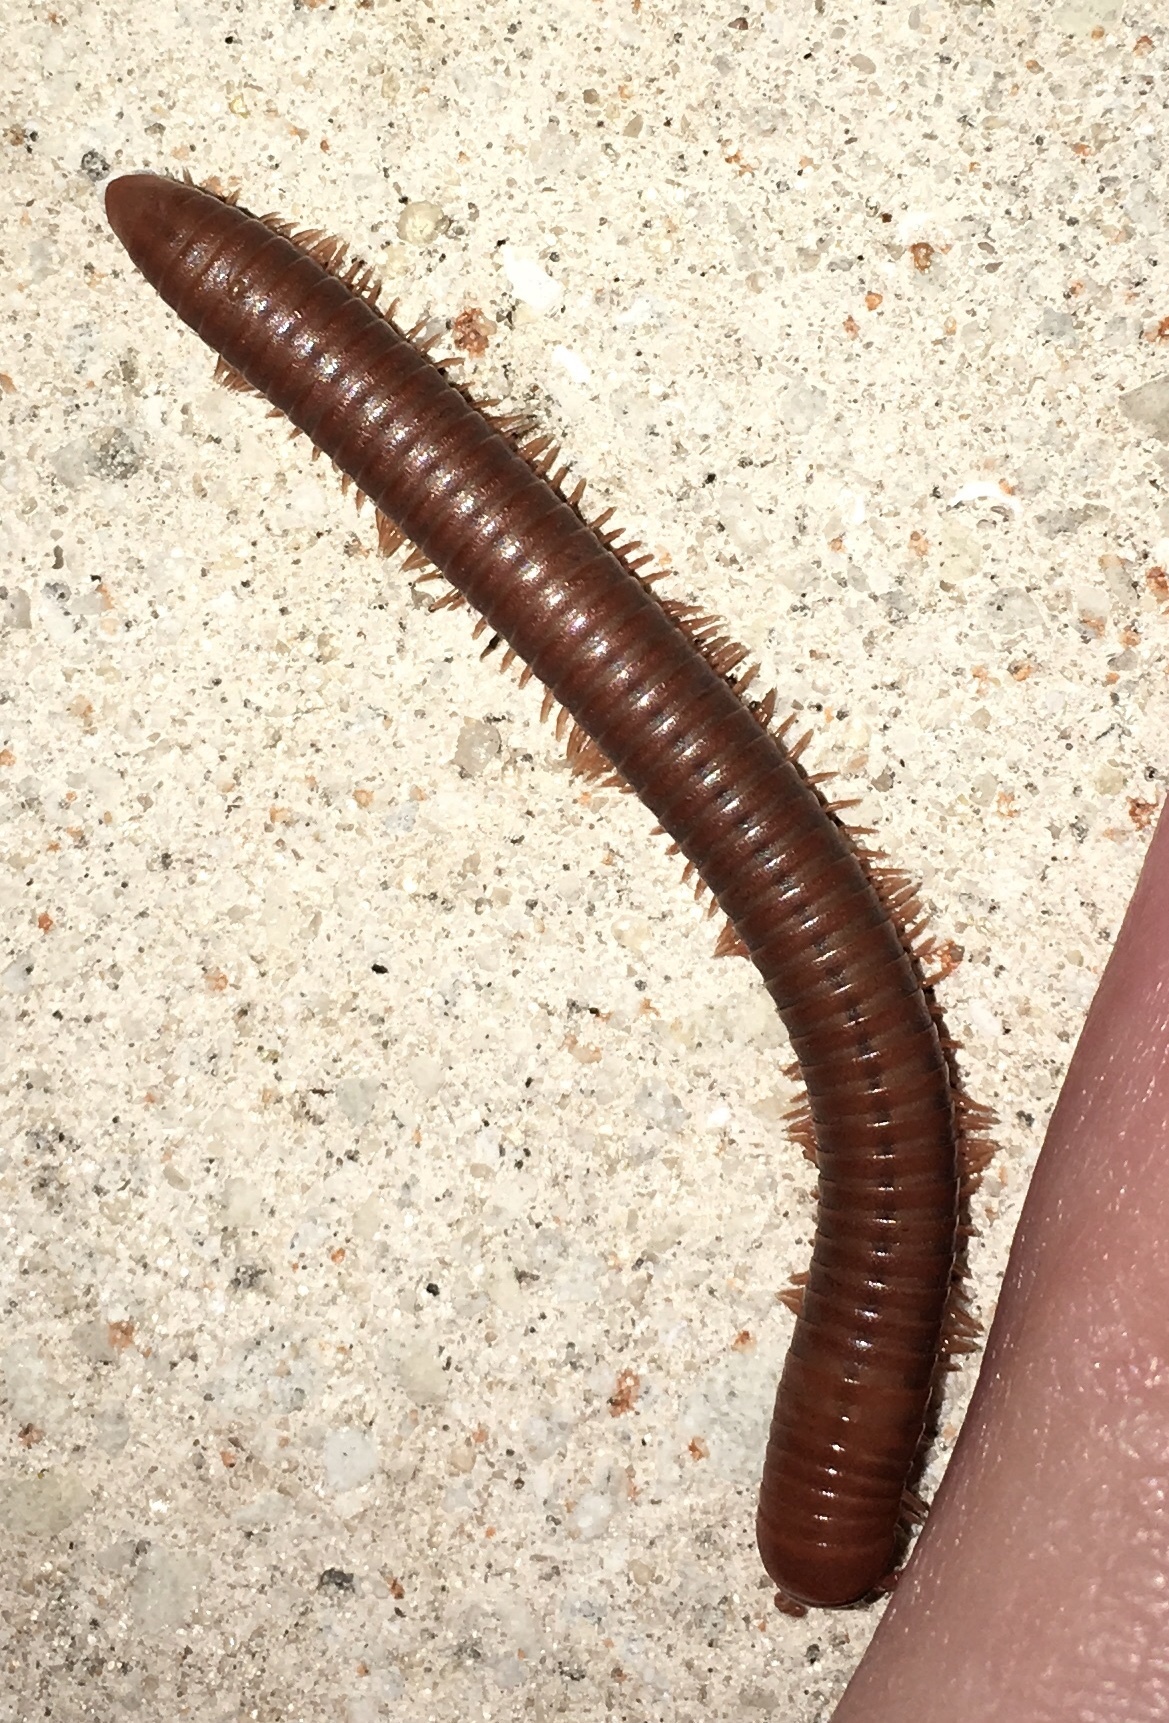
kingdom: Animalia
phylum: Arthropoda
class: Diplopoda
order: Spirobolida
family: Pachybolidae
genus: Trigoniulus
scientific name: Trigoniulus corallinus
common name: Millipede
